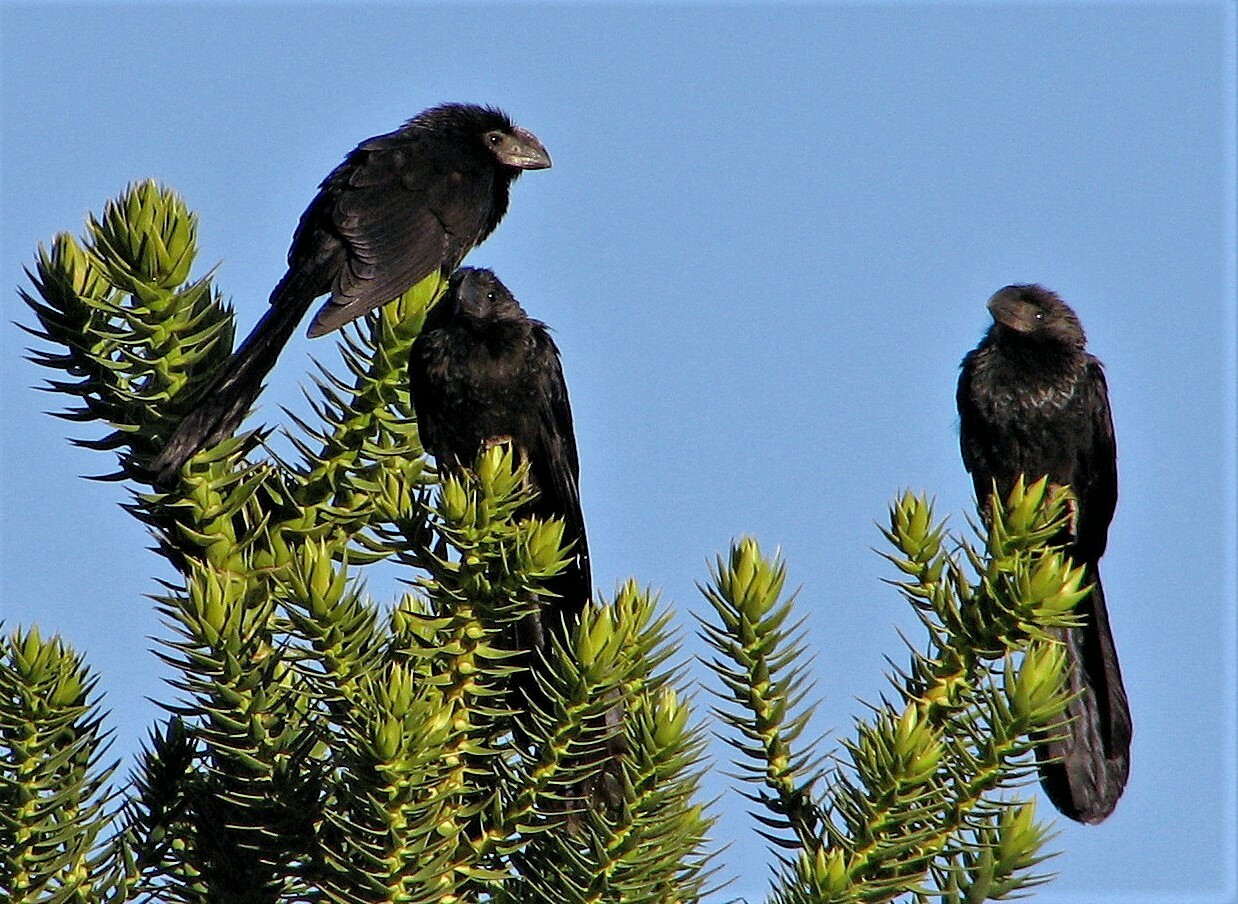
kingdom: Animalia
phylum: Chordata
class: Aves
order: Cuculiformes
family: Cuculidae
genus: Crotophaga
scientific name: Crotophaga ani
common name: Smooth-billed ani
